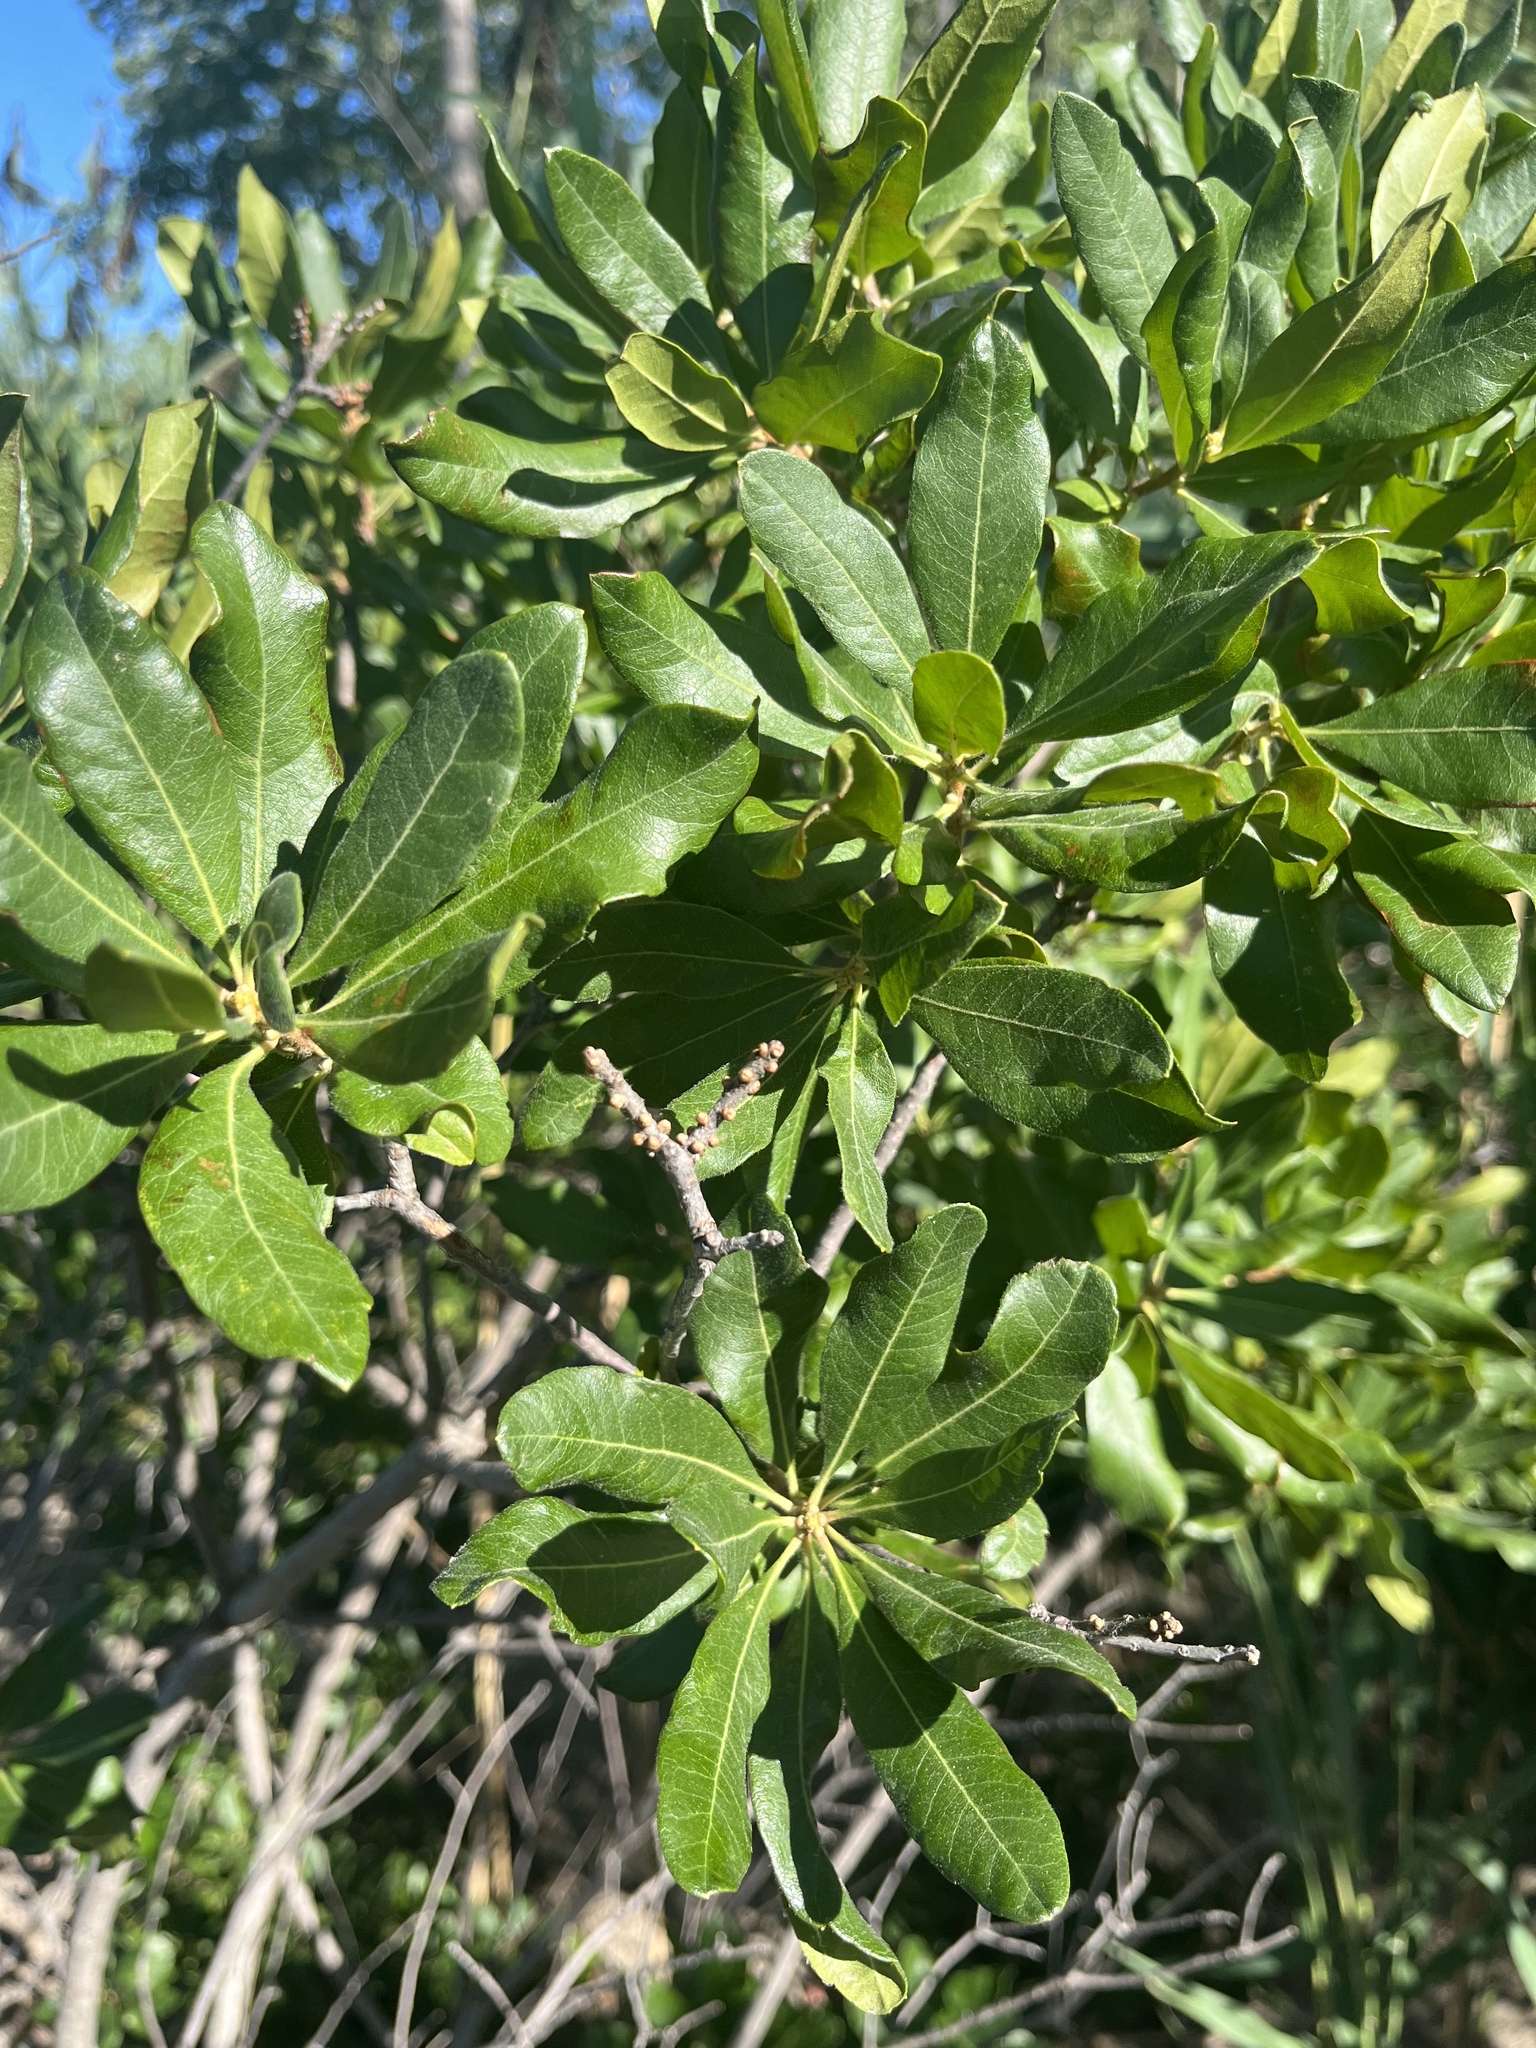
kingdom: Plantae
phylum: Tracheophyta
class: Magnoliopsida
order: Fagales
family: Myricaceae
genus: Morella
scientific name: Morella pensylvanica
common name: Northern bayberry
